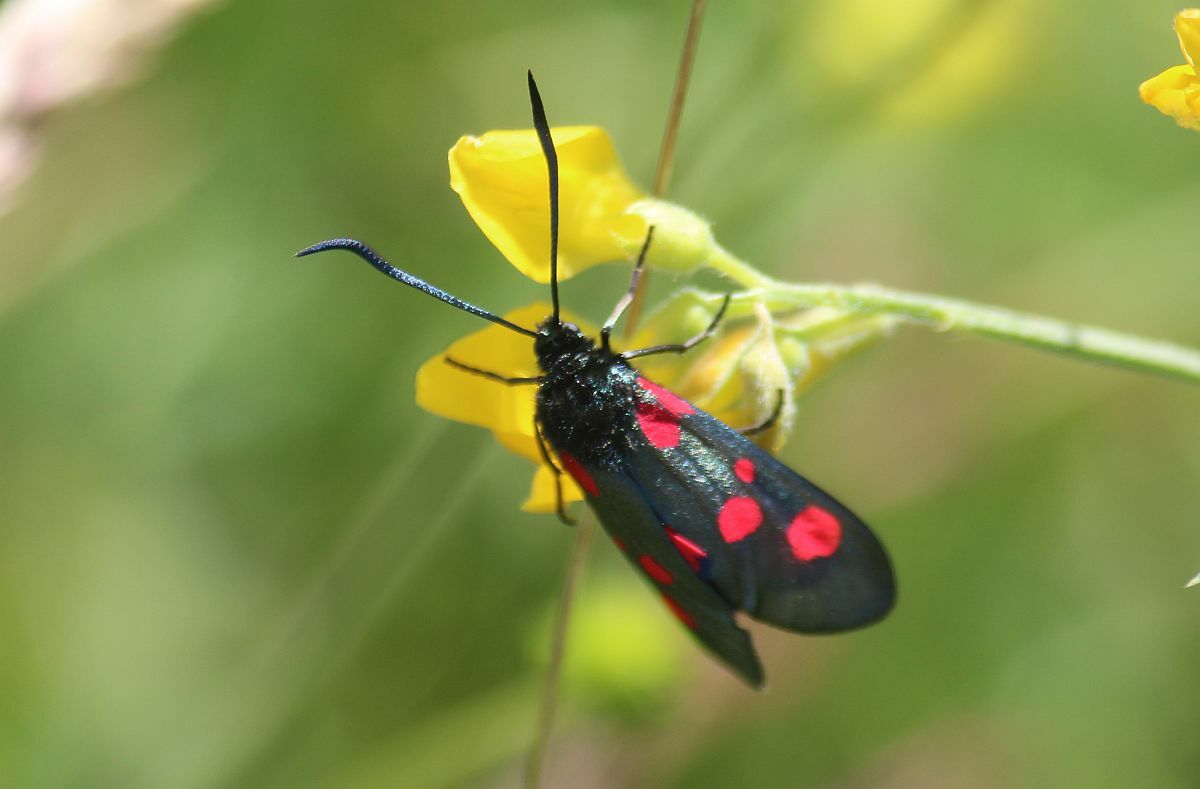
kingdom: Animalia
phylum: Arthropoda
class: Insecta
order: Lepidoptera
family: Zygaenidae
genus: Zygaena
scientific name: Zygaena lonicerae
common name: Narrow-bordered five-spot burnet
